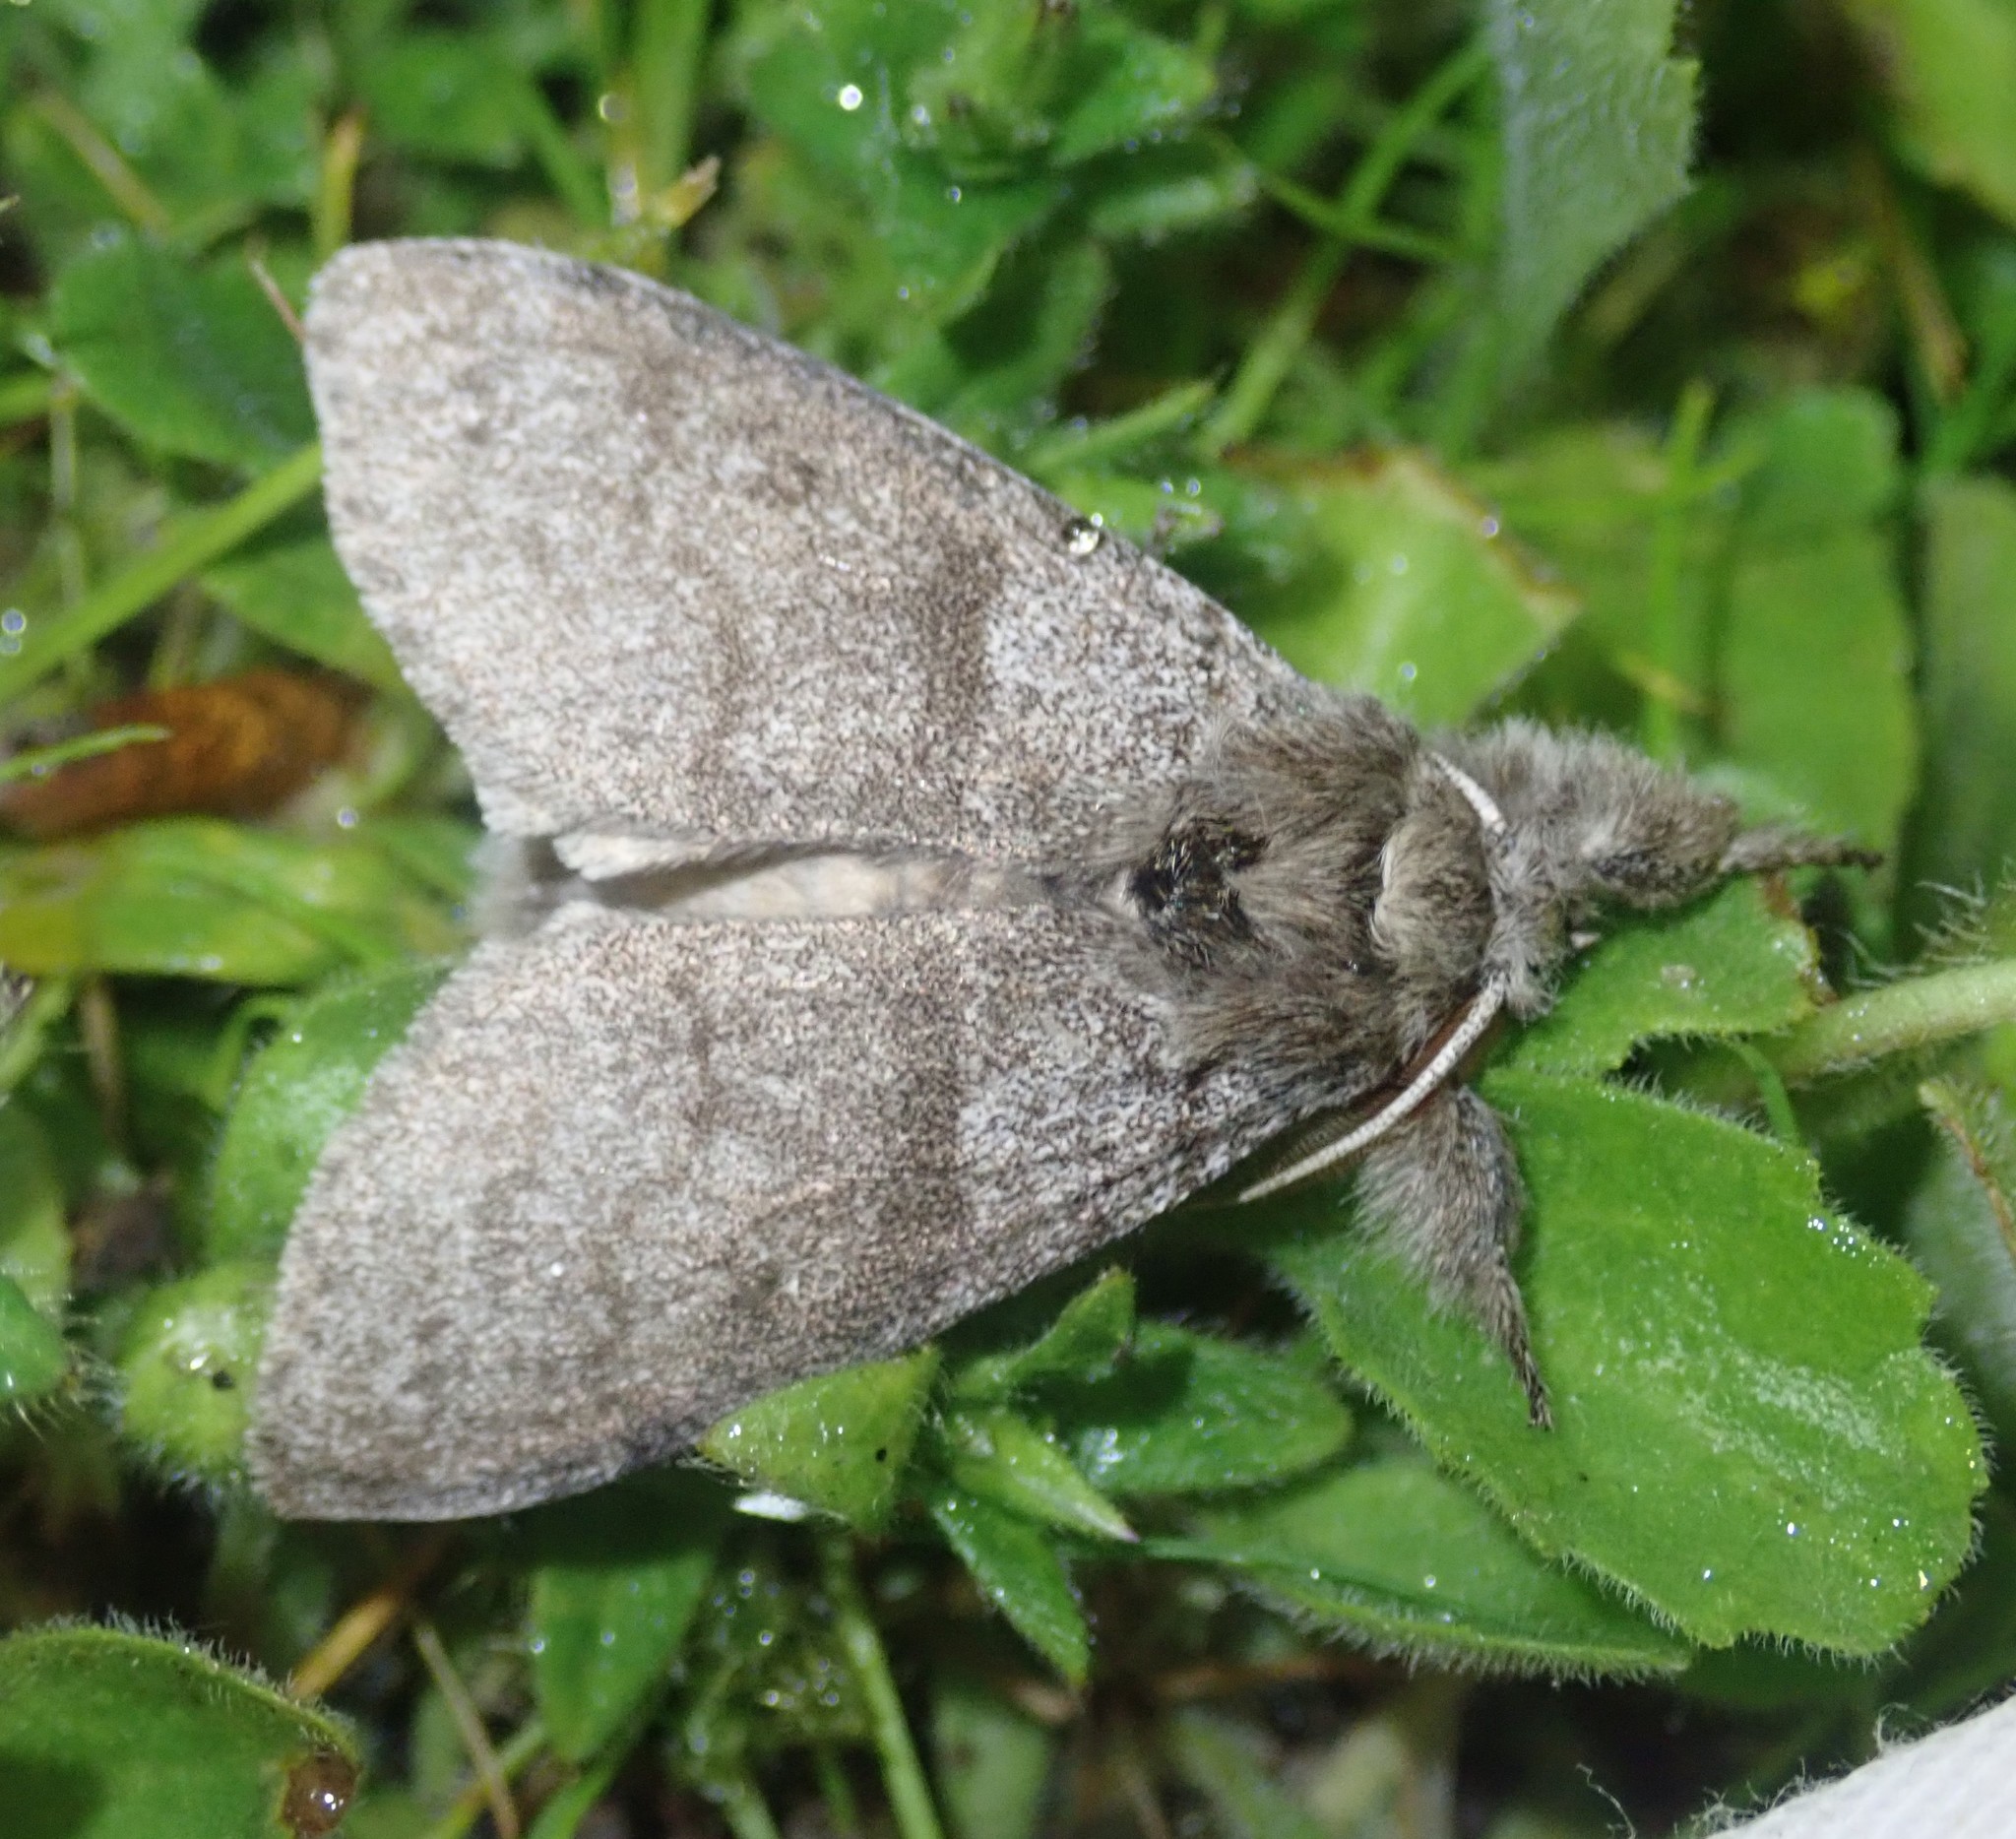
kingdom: Animalia
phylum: Arthropoda
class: Insecta
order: Lepidoptera
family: Erebidae
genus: Calliteara
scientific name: Calliteara pudibunda
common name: Pale tussock
